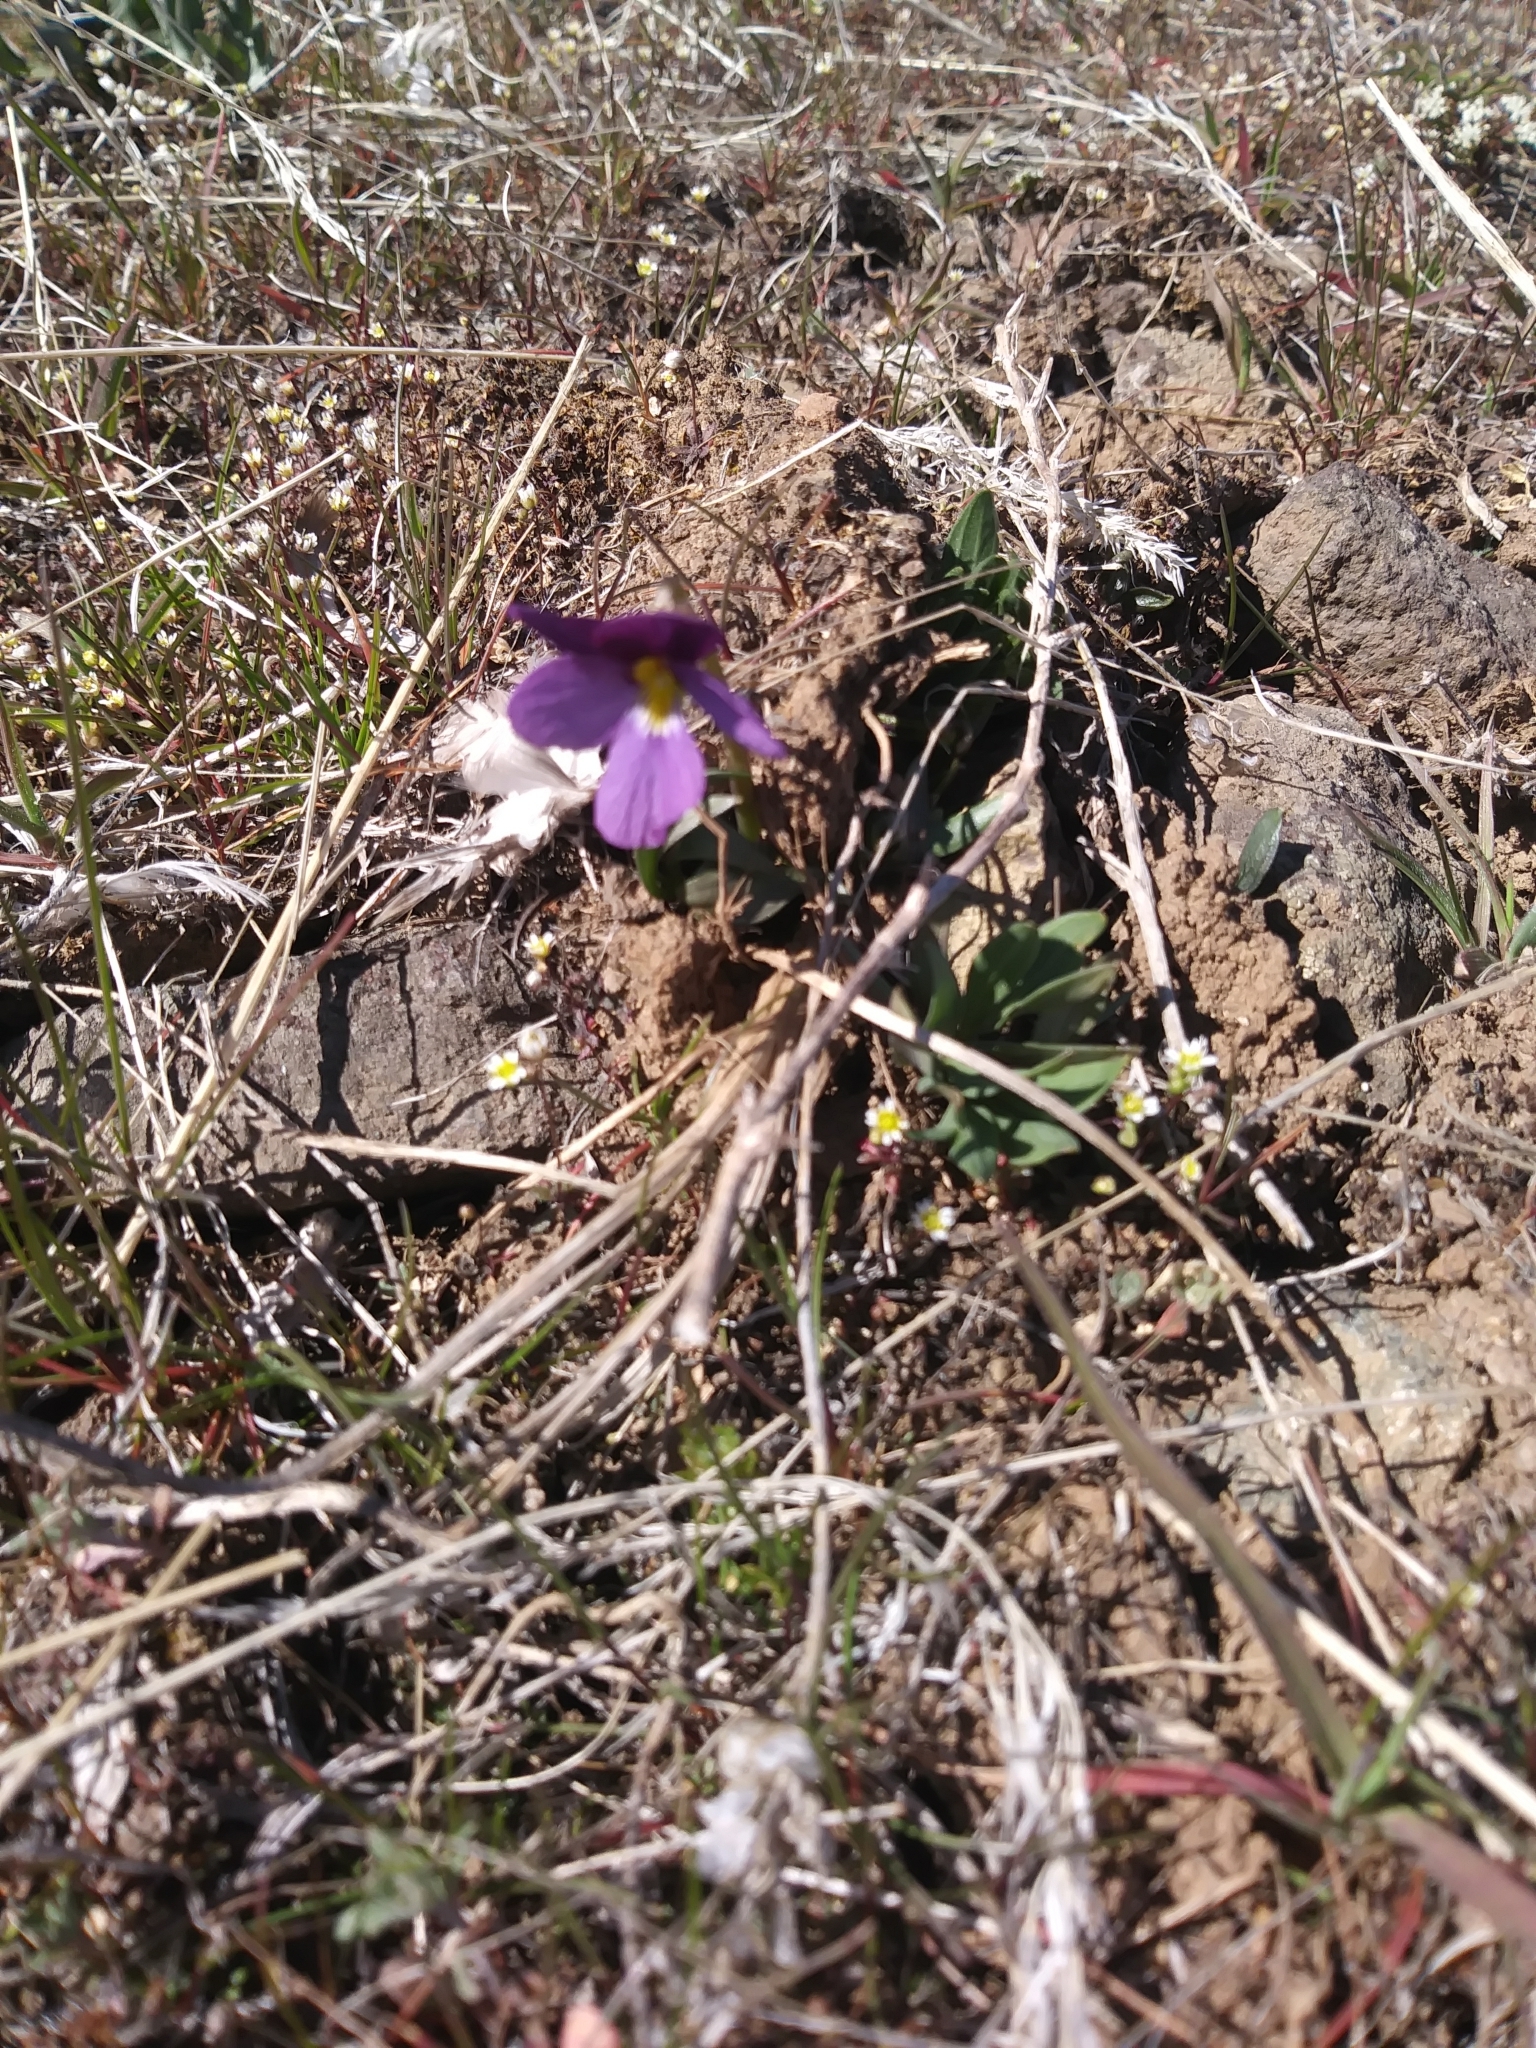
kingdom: Plantae
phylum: Tracheophyta
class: Magnoliopsida
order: Malpighiales
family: Violaceae
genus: Viola
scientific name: Viola trinervata
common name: Sagebrush violet
